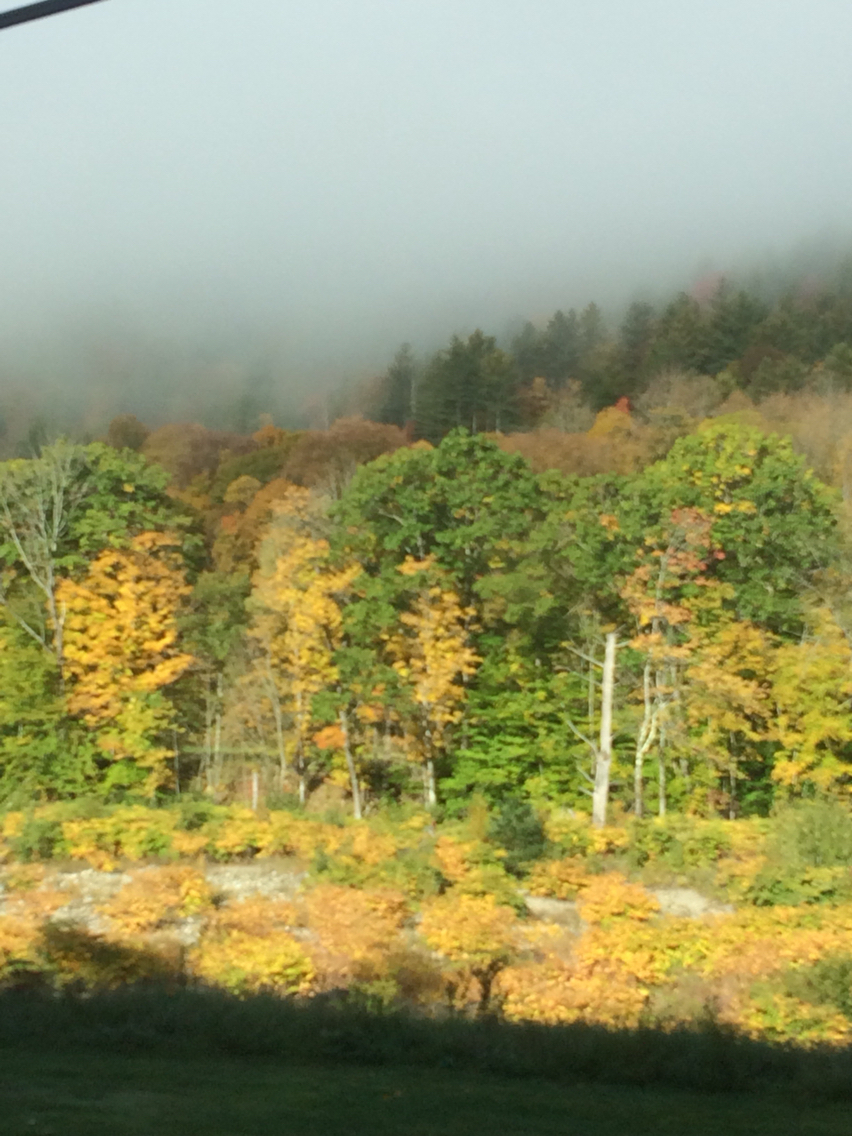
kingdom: Plantae
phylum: Tracheophyta
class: Magnoliopsida
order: Fagales
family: Fagaceae
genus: Quercus
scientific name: Quercus rubra
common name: Red oak
